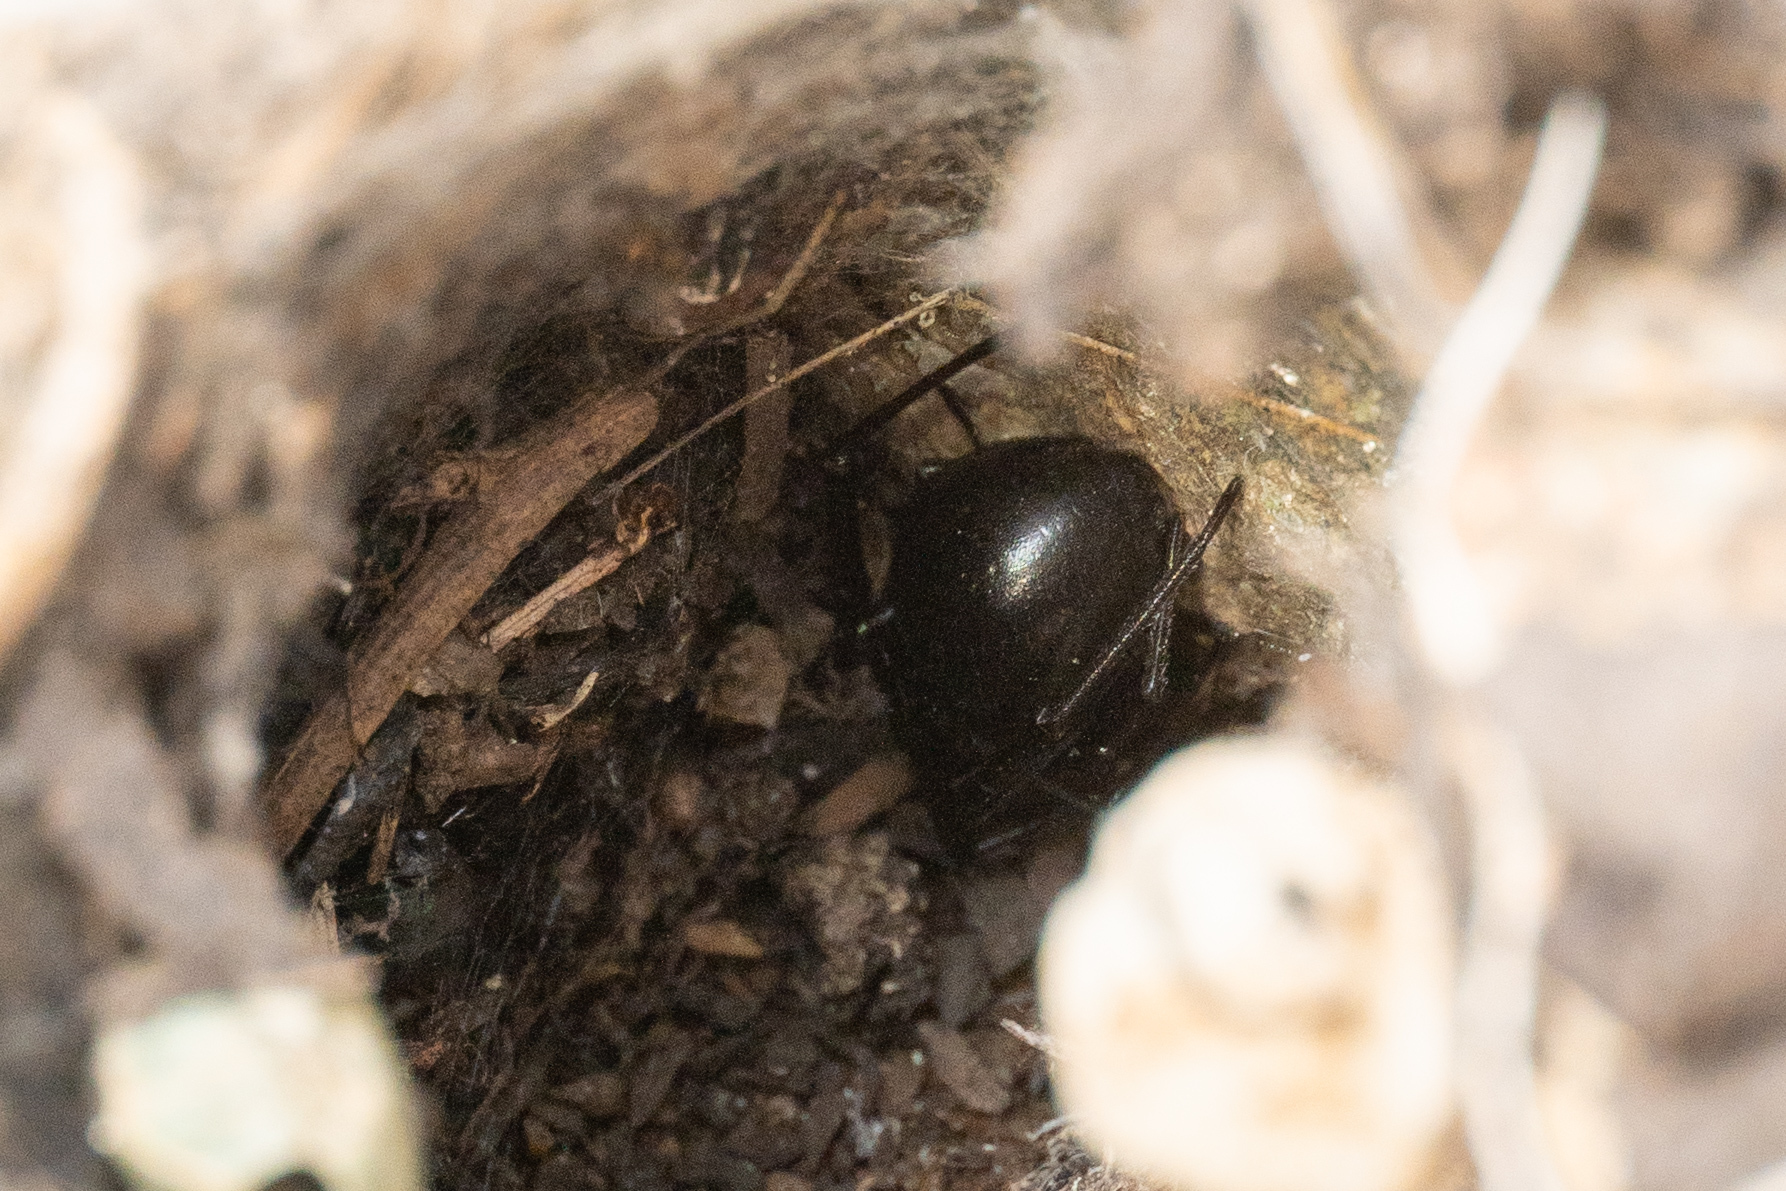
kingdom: Animalia
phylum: Arthropoda
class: Arachnida
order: Araneae
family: Theridiidae
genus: Latrodectus
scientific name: Latrodectus hesperus
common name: Western black widow
